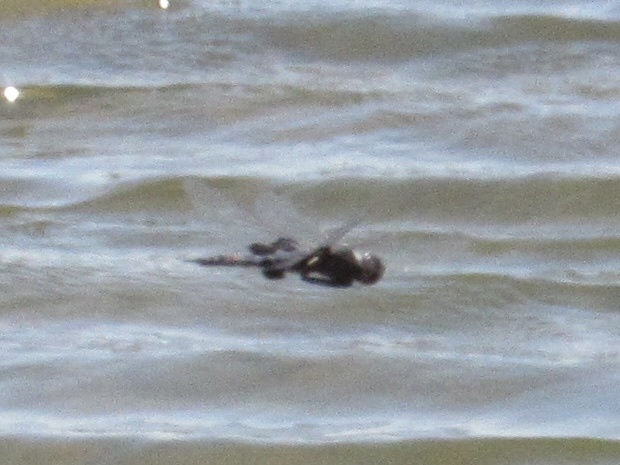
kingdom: Animalia
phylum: Arthropoda
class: Insecta
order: Odonata
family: Libellulidae
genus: Tramea
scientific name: Tramea lacerata
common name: Black saddlebags
